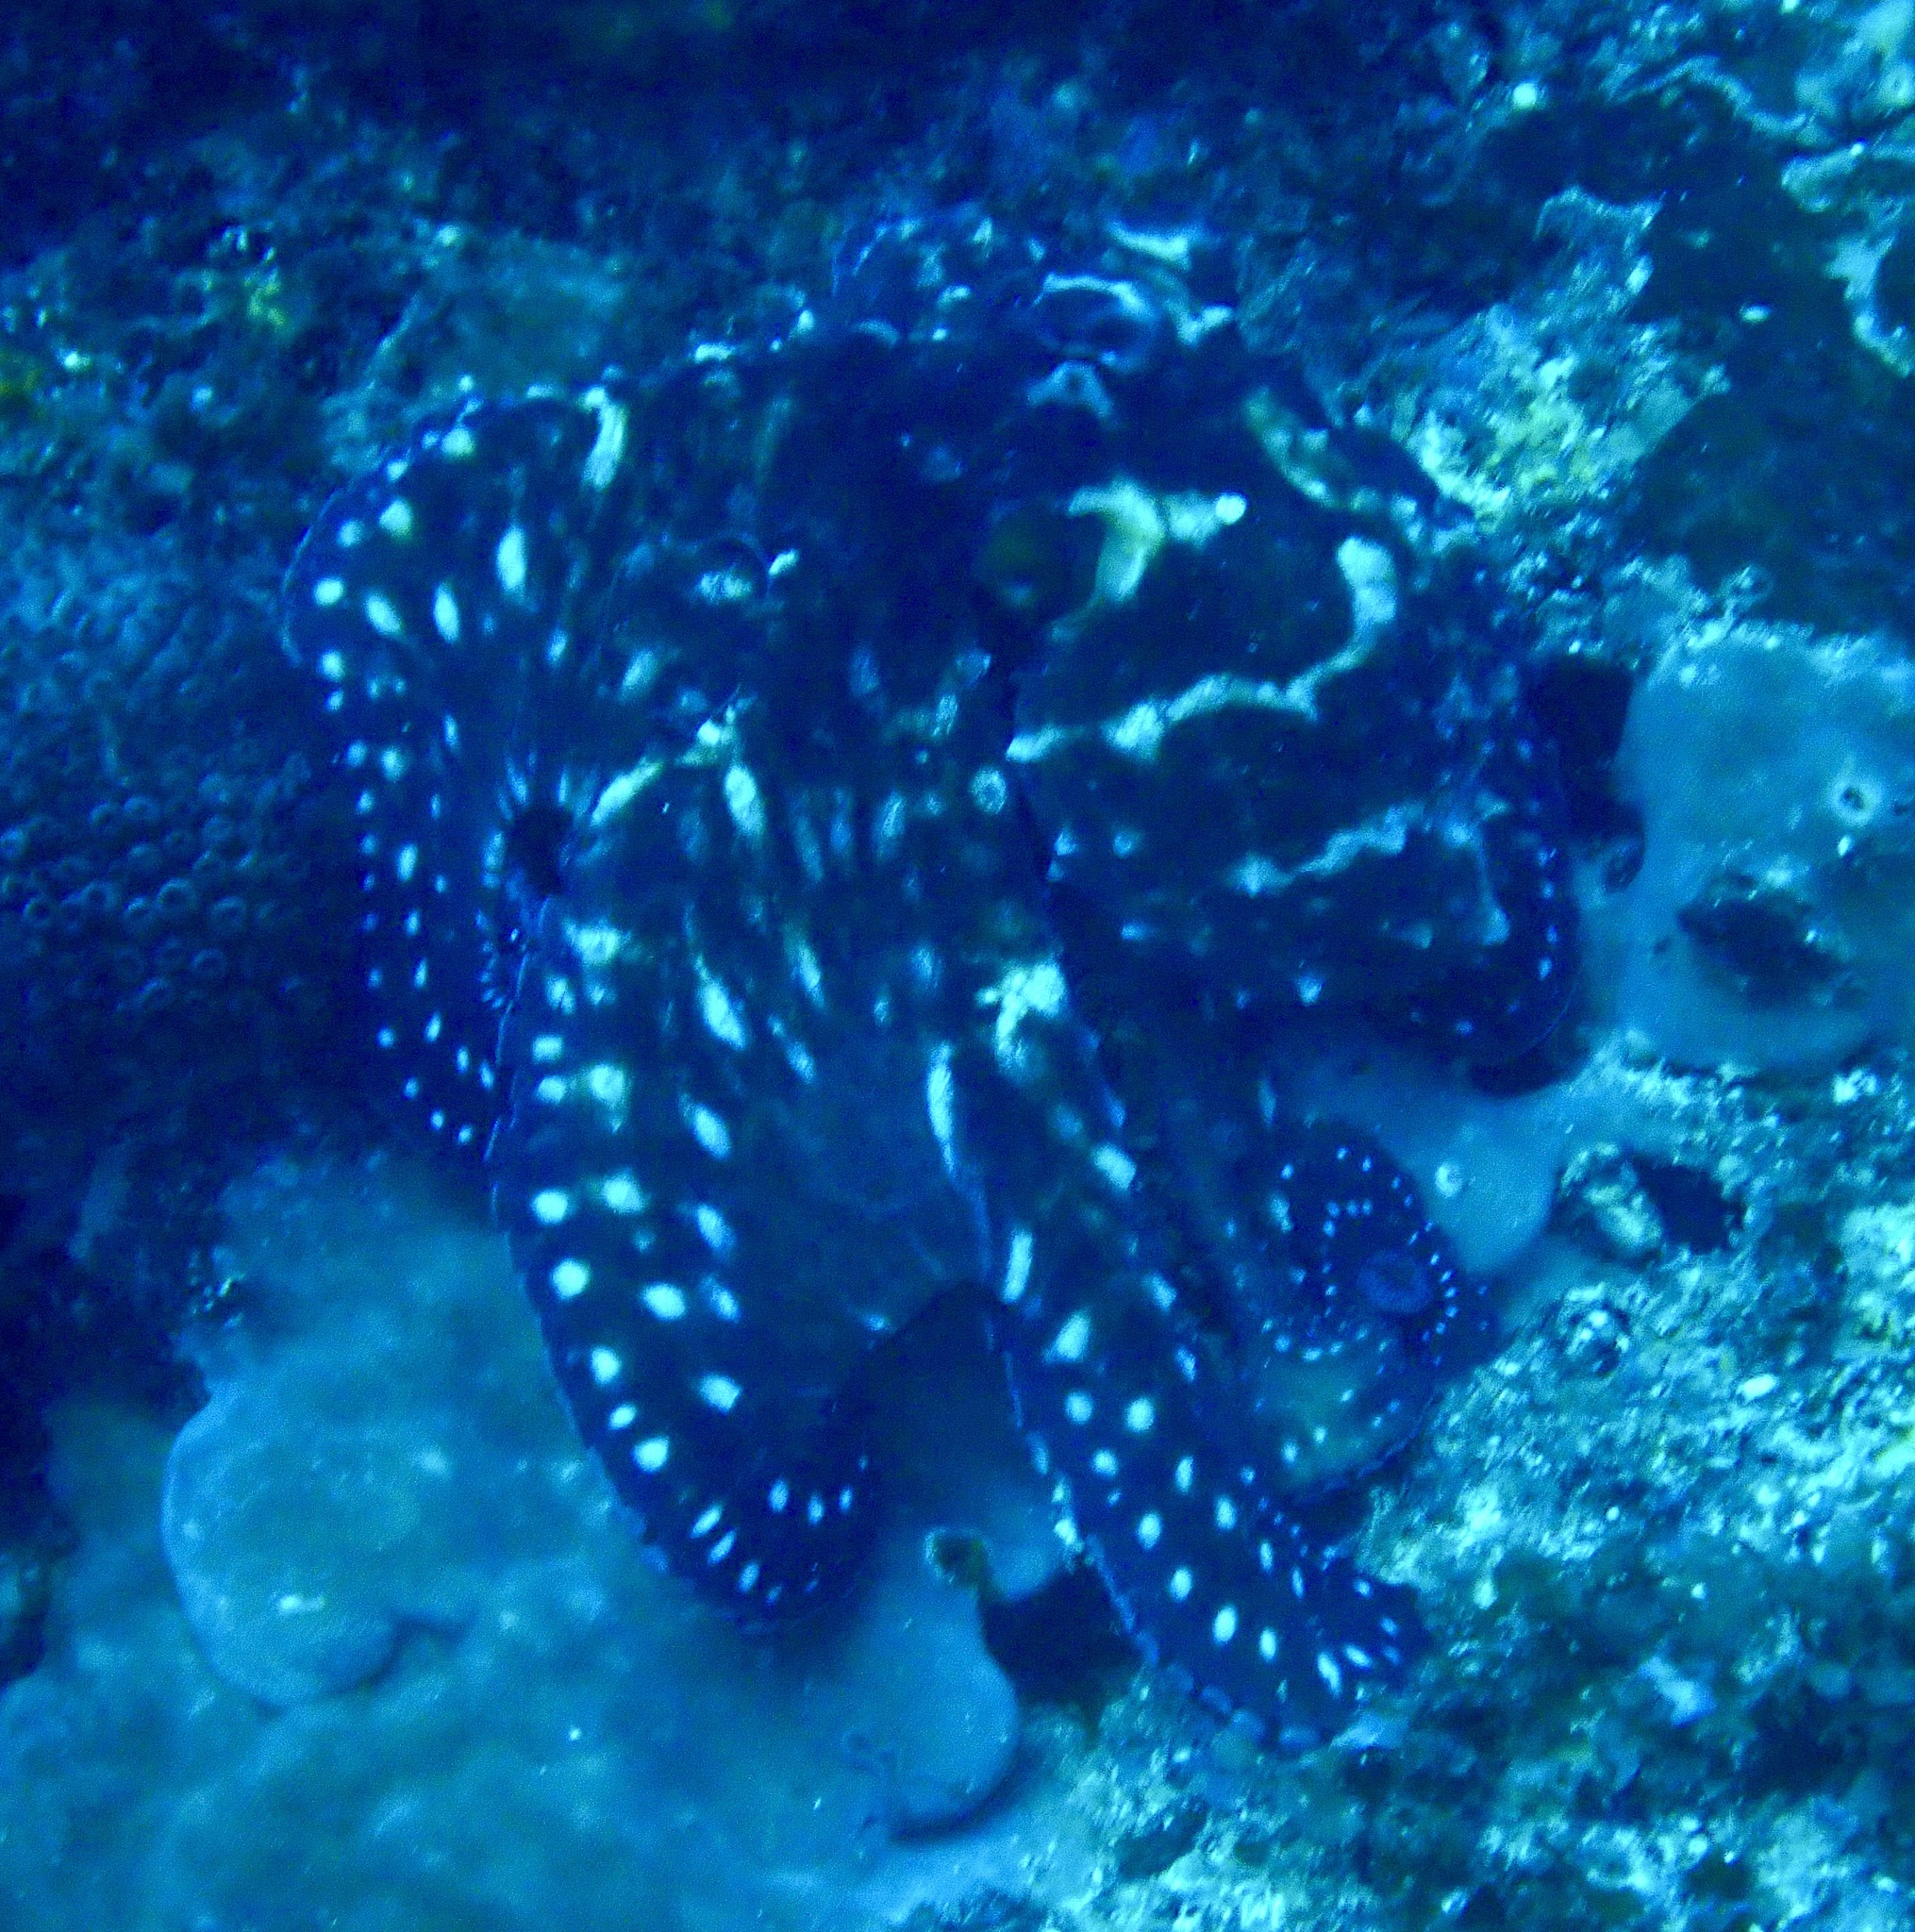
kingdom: Animalia
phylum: Mollusca
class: Cephalopoda
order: Octopoda
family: Octopodidae
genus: Octopus
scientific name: Octopus cyanea
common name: Cyane's octopus
